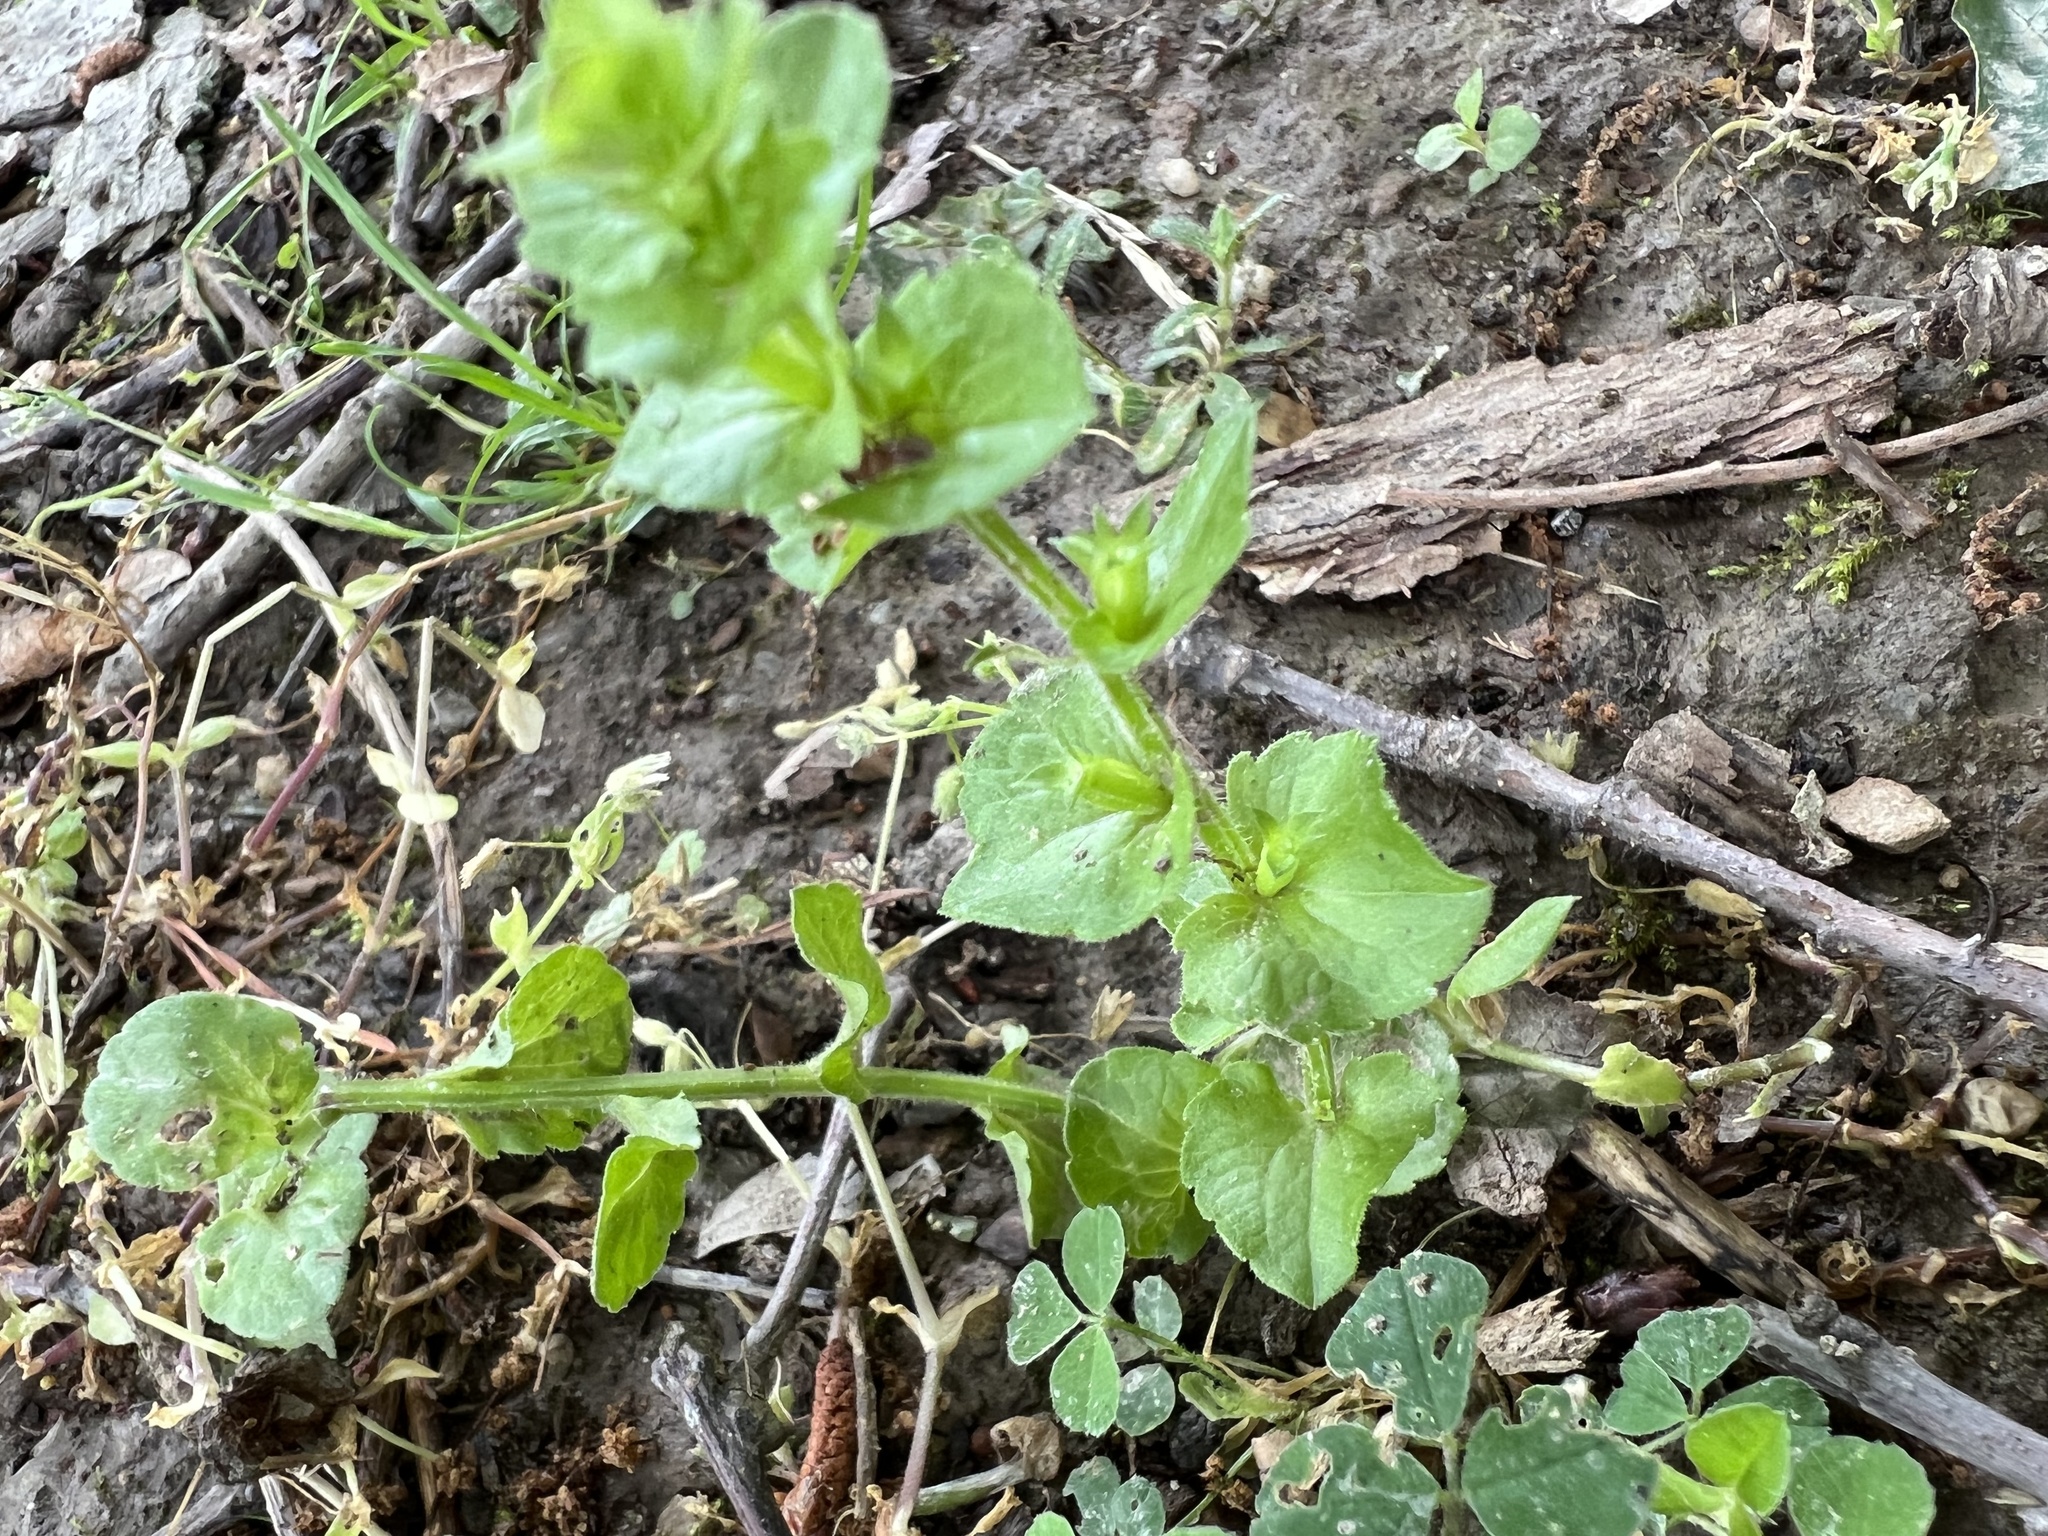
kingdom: Plantae
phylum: Tracheophyta
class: Magnoliopsida
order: Asterales
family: Campanulaceae
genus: Triodanis
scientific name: Triodanis perfoliata
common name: Clasping venus' looking-glass
